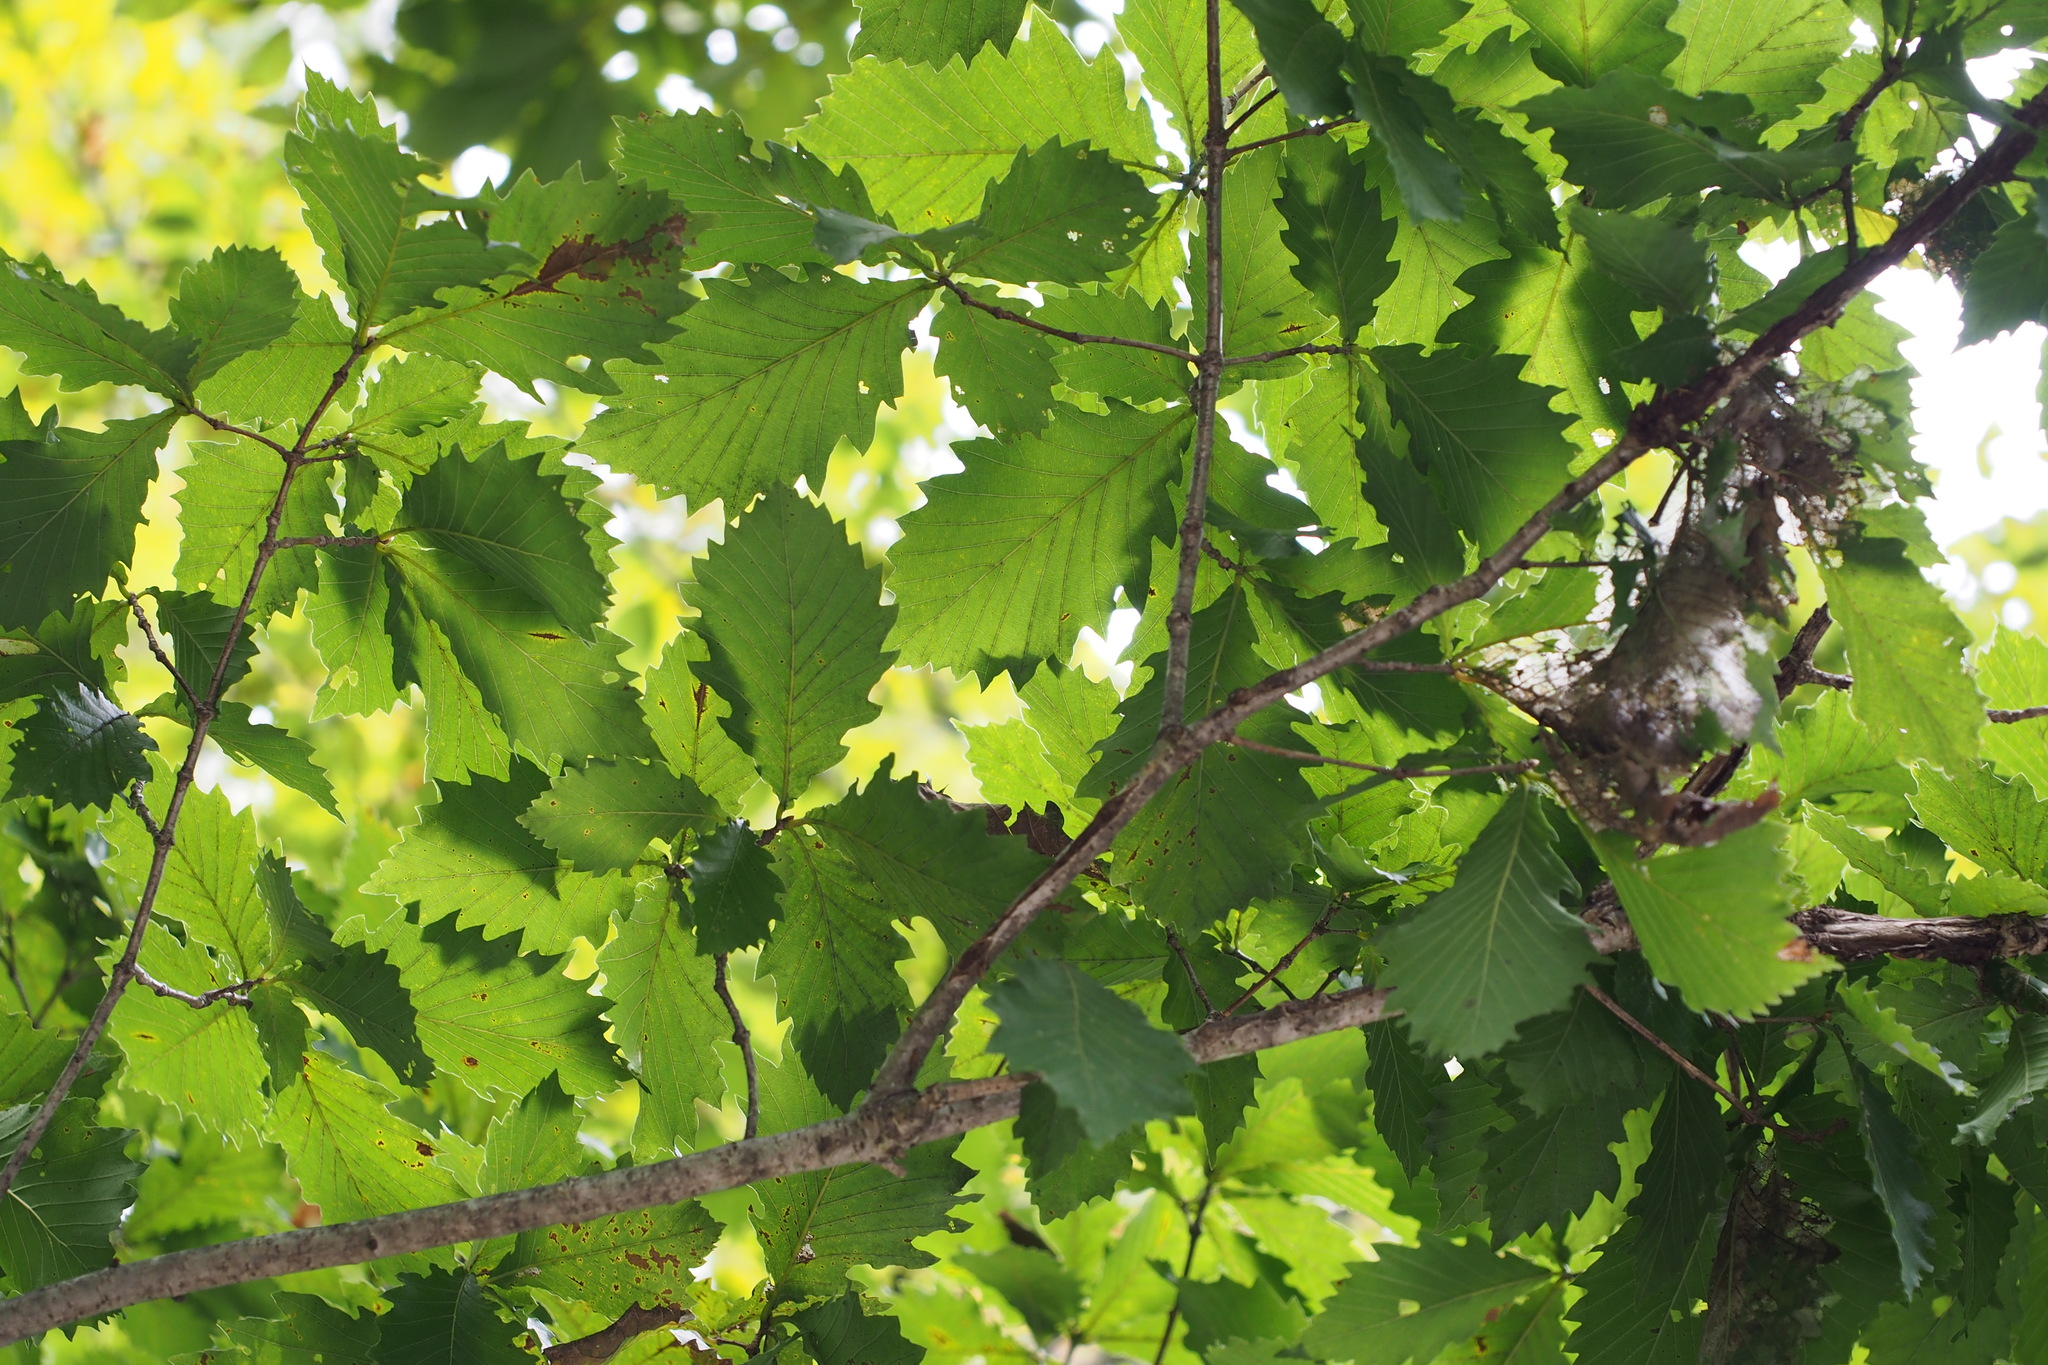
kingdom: Plantae
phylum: Tracheophyta
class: Magnoliopsida
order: Fagales
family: Fagaceae
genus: Quercus
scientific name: Quercus crispula
